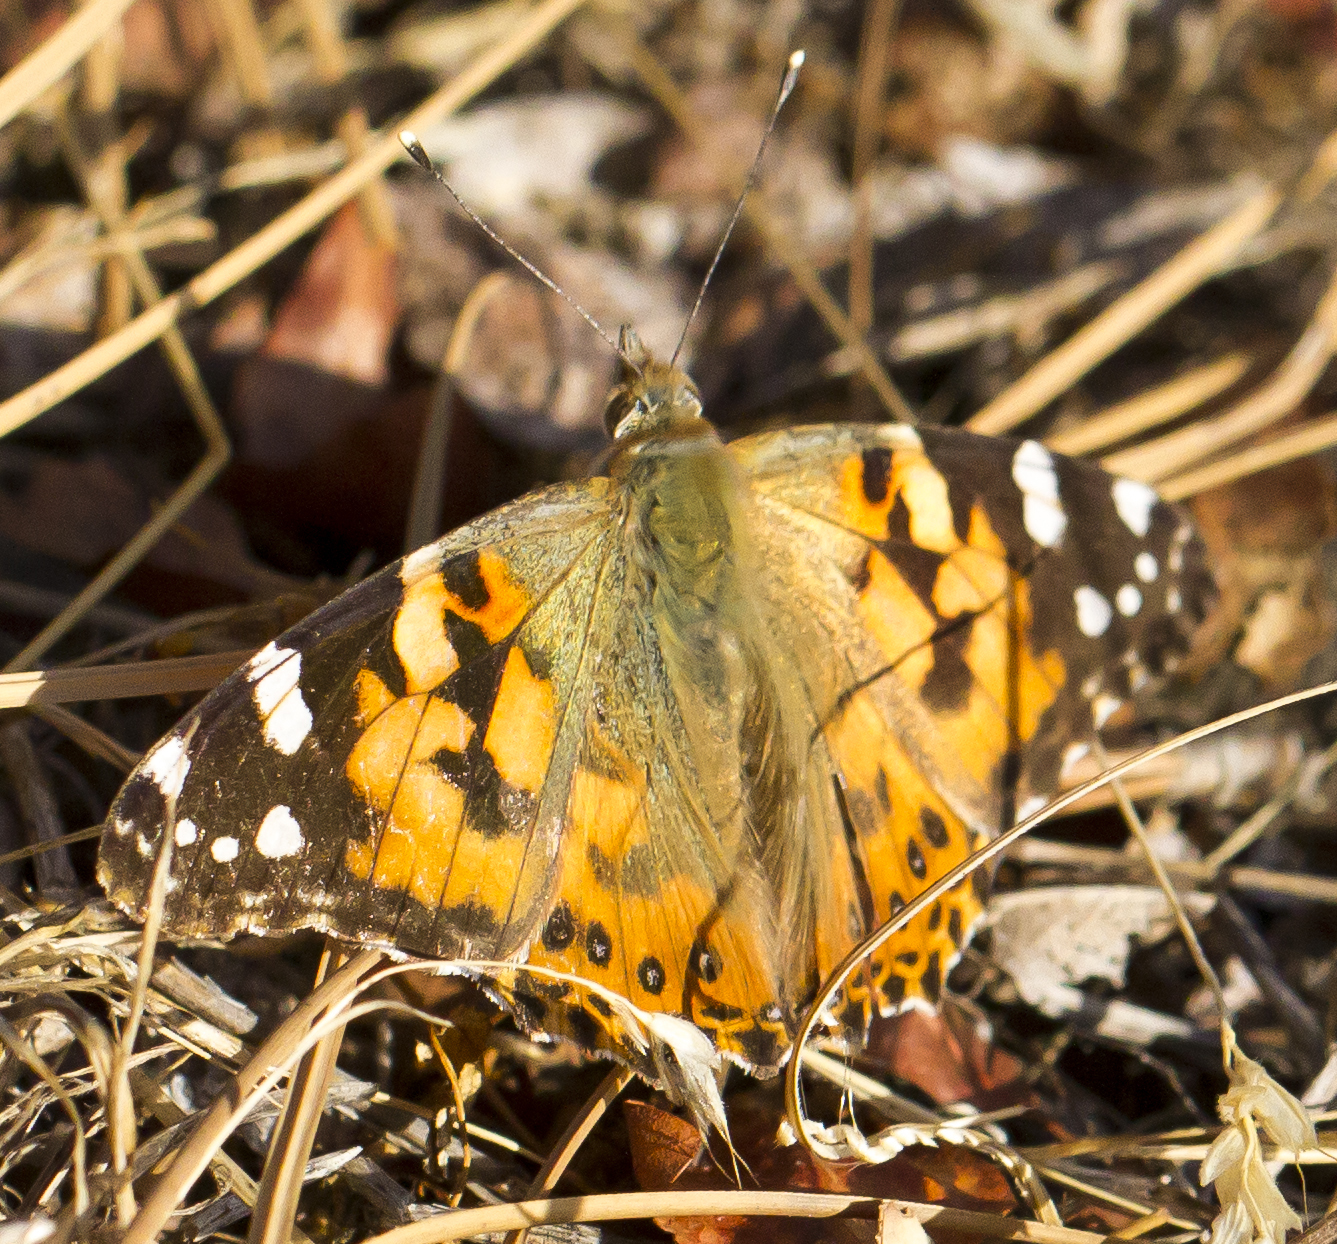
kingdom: Animalia
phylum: Arthropoda
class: Insecta
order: Lepidoptera
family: Nymphalidae
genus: Vanessa
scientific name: Vanessa cardui
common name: Painted lady
